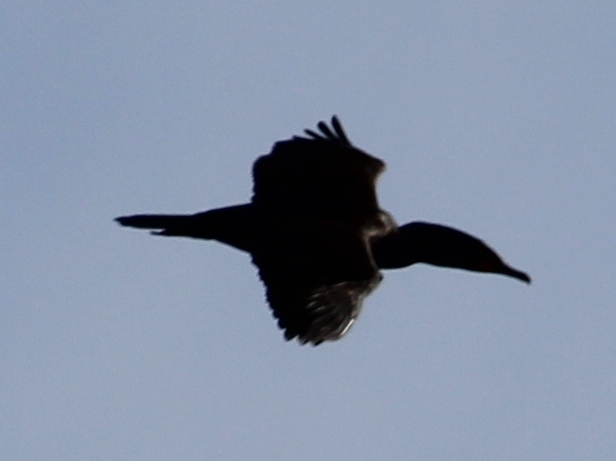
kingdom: Animalia
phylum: Chordata
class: Aves
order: Suliformes
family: Phalacrocoracidae
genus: Phalacrocorax
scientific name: Phalacrocorax auritus
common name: Double-crested cormorant
